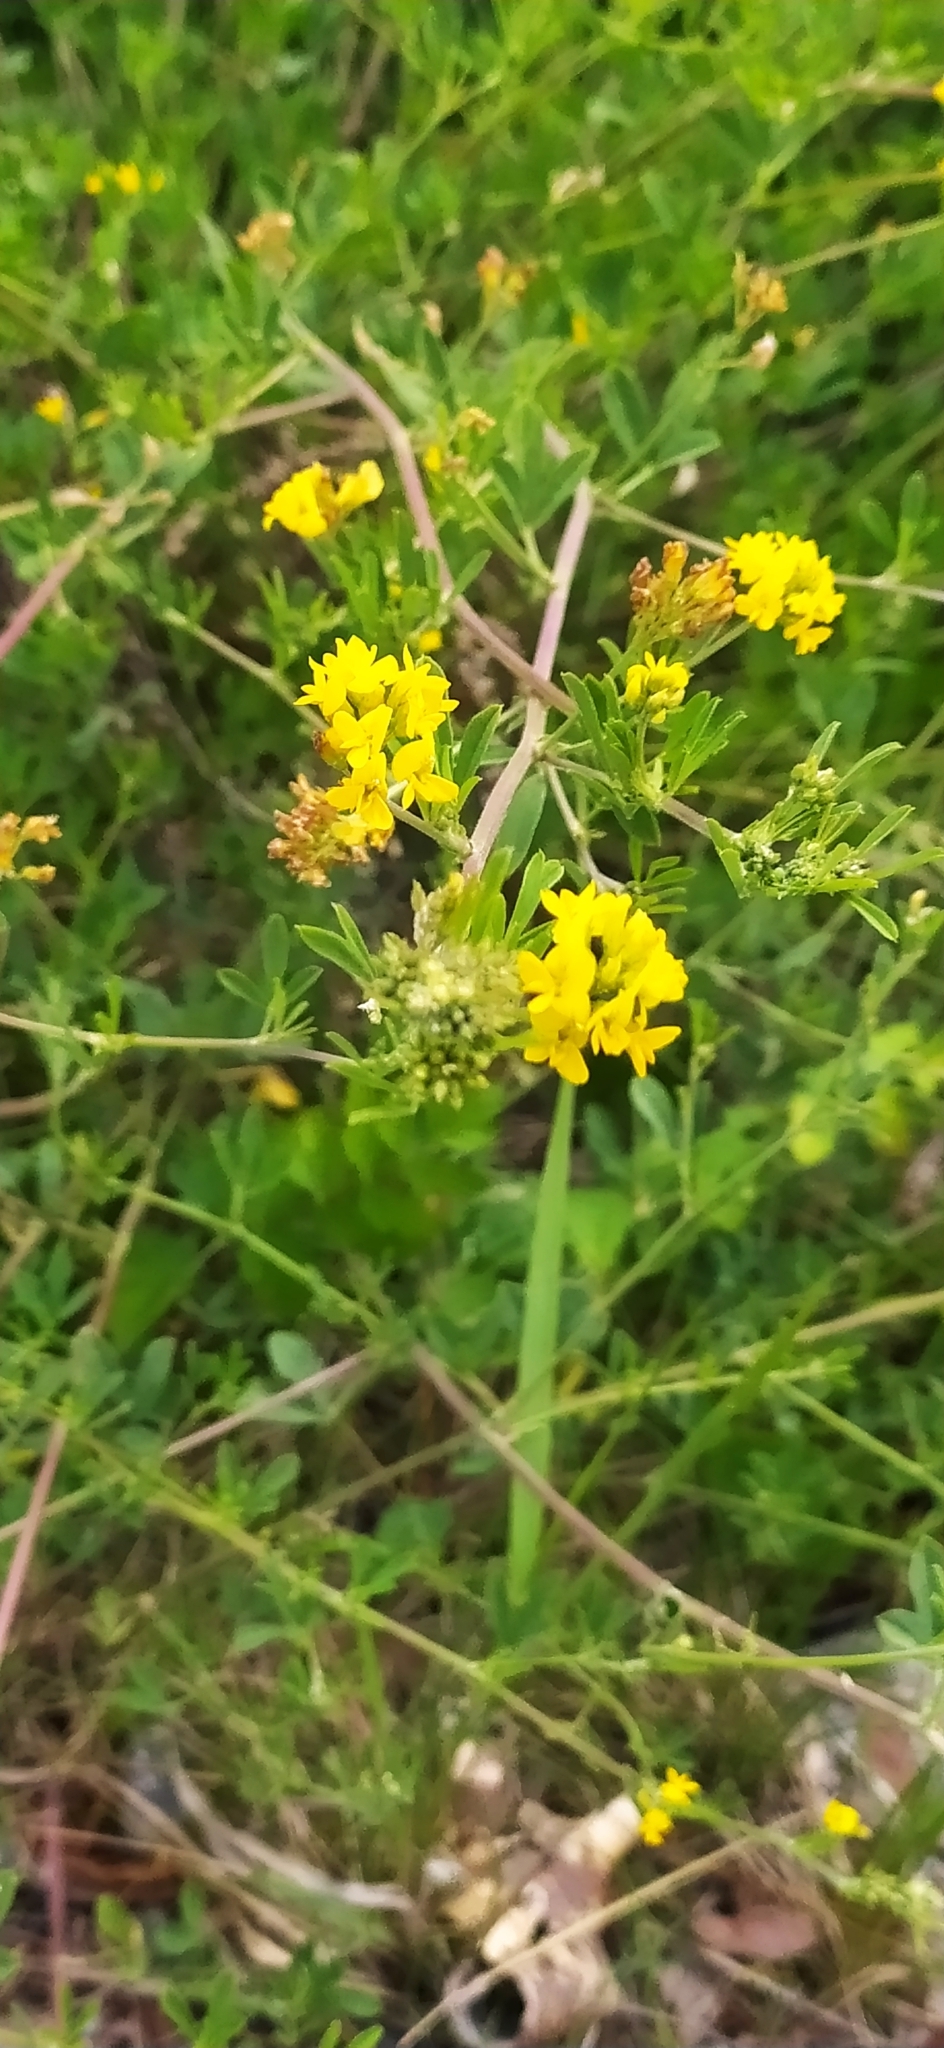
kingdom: Plantae
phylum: Tracheophyta
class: Magnoliopsida
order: Fabales
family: Fabaceae
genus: Medicago
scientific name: Medicago varia
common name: Sand lucerne
